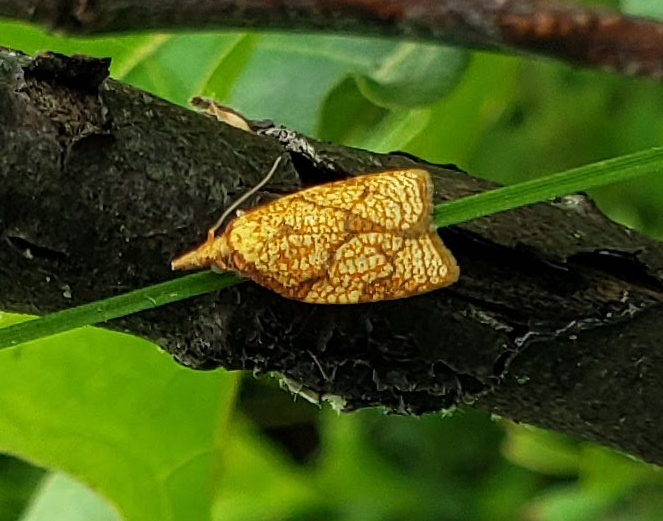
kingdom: Animalia
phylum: Arthropoda
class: Insecta
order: Lepidoptera
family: Tortricidae
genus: Cenopis
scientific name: Cenopis reticulatana
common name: Reticulated fruitworm moth
